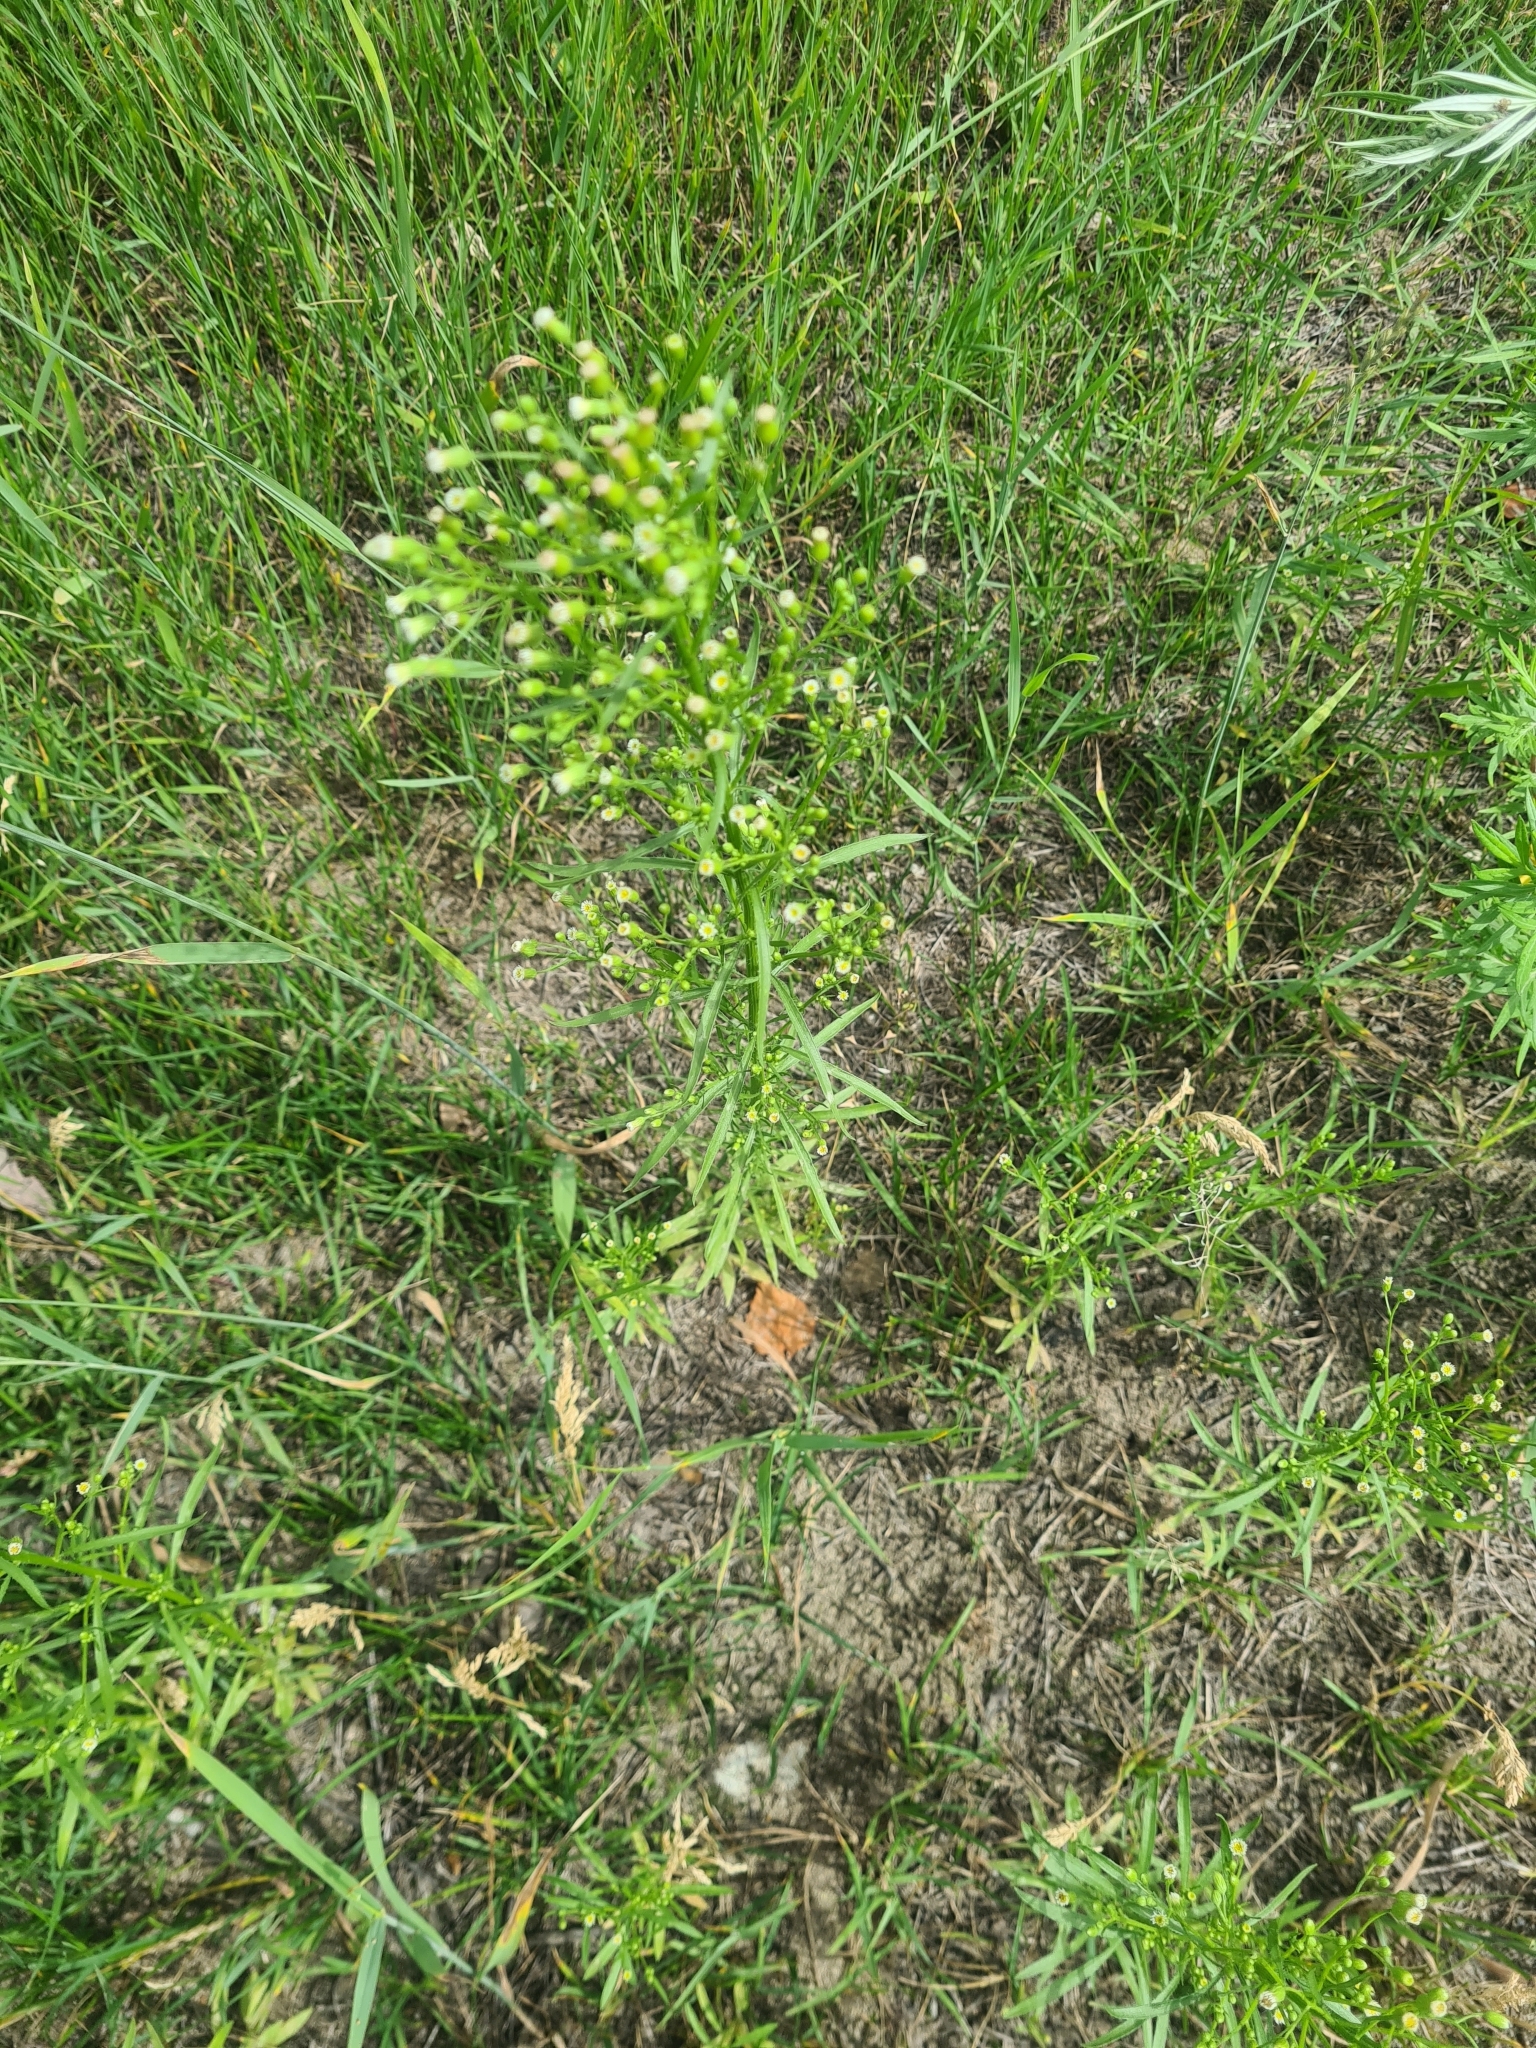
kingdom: Plantae
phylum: Tracheophyta
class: Magnoliopsida
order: Asterales
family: Asteraceae
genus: Erigeron
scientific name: Erigeron canadensis
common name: Canadian fleabane
